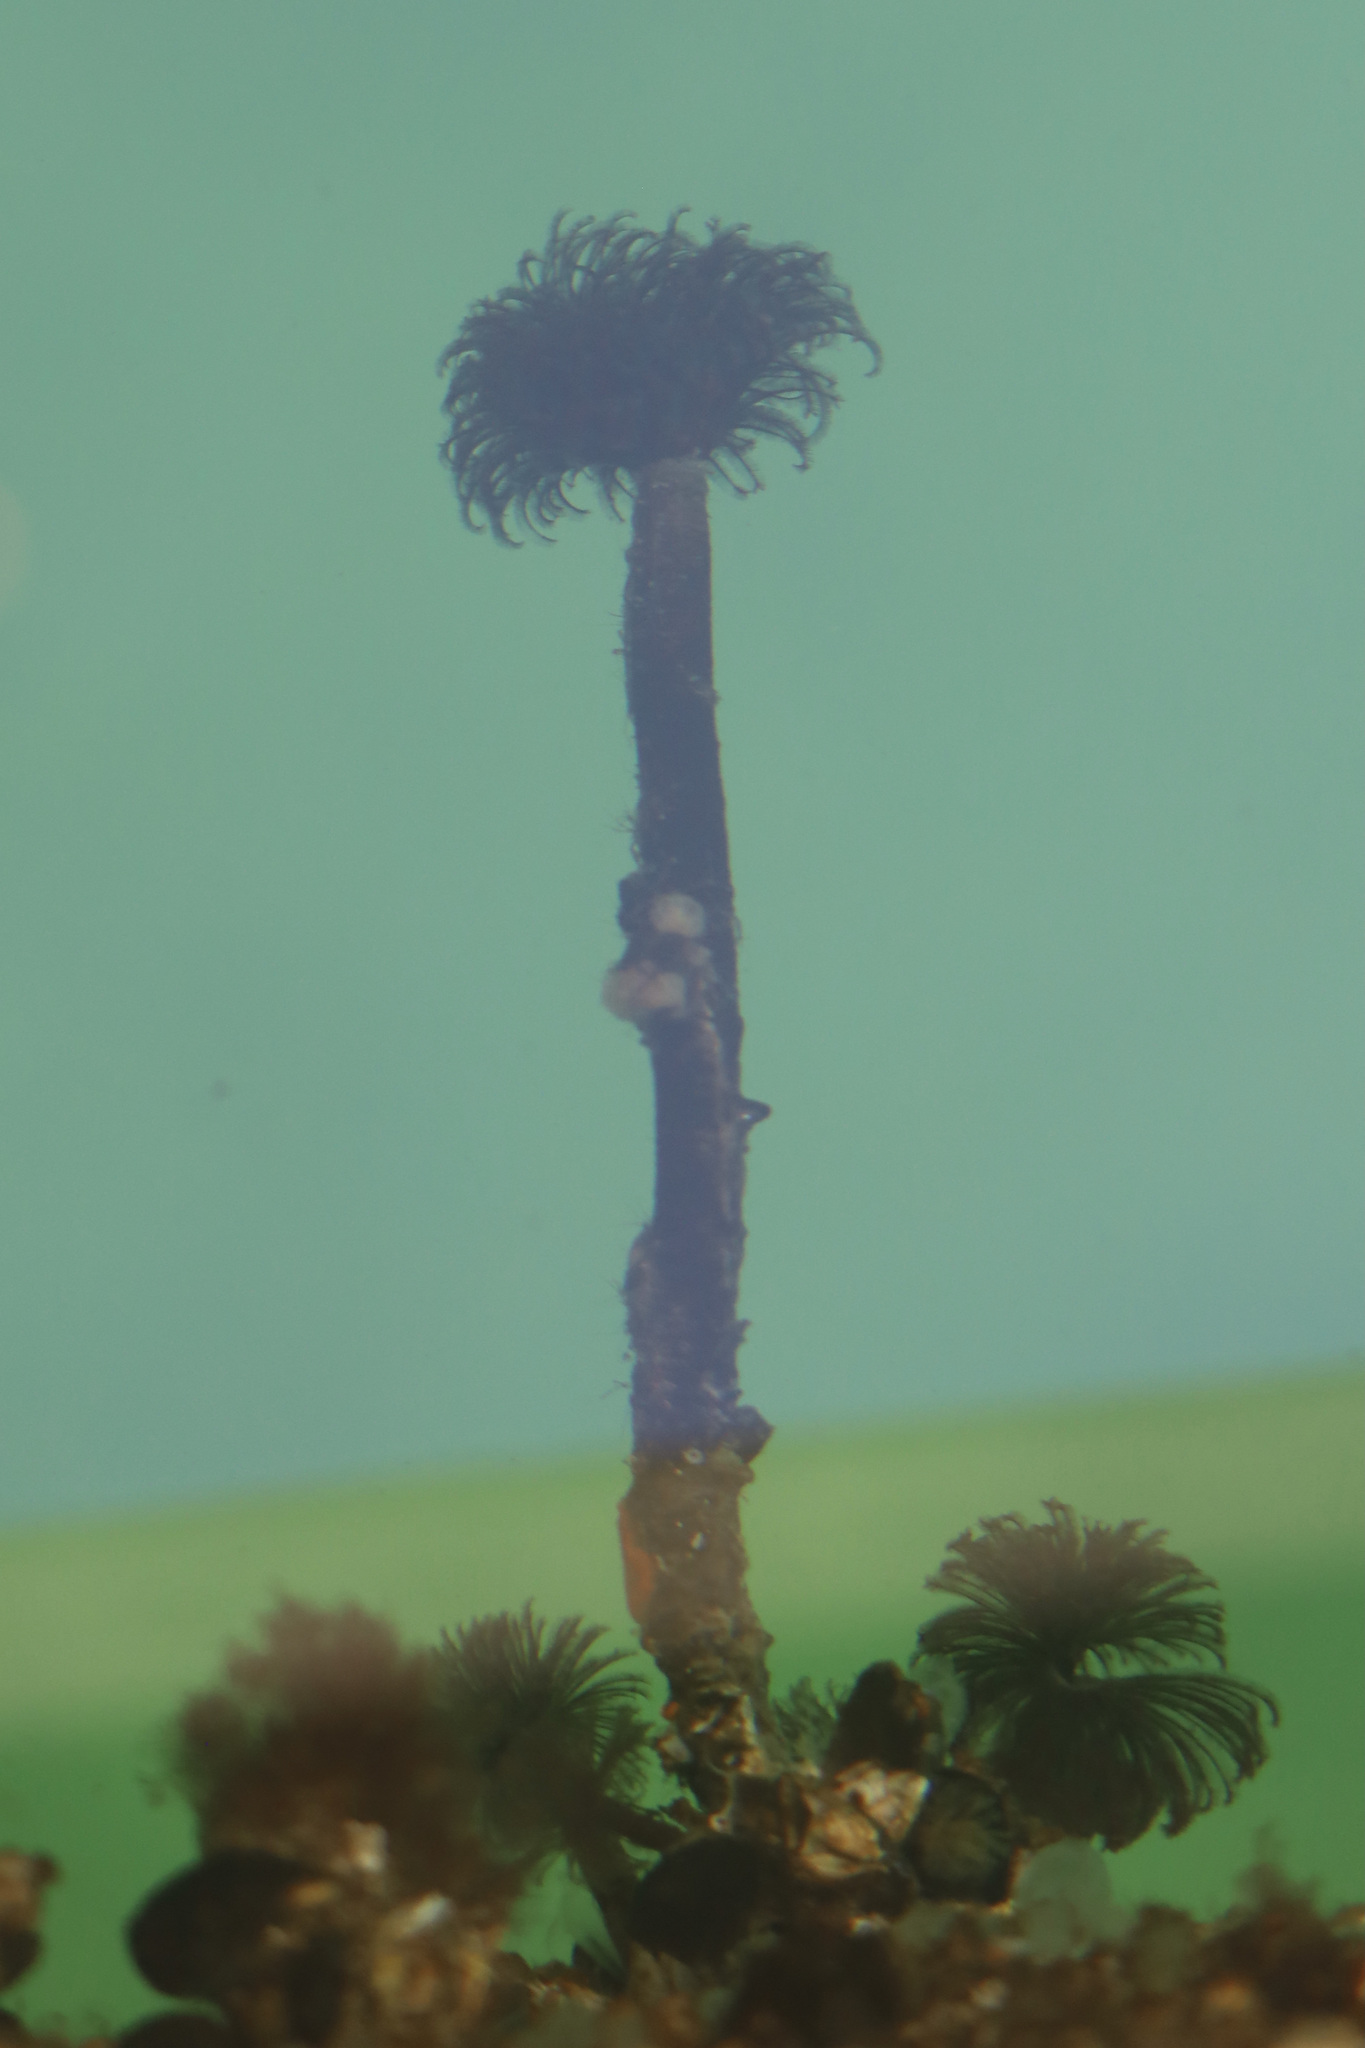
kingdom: Animalia
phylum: Annelida
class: Polychaeta
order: Sabellida
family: Sabellidae
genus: Eudistylia
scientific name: Eudistylia vancouveri
